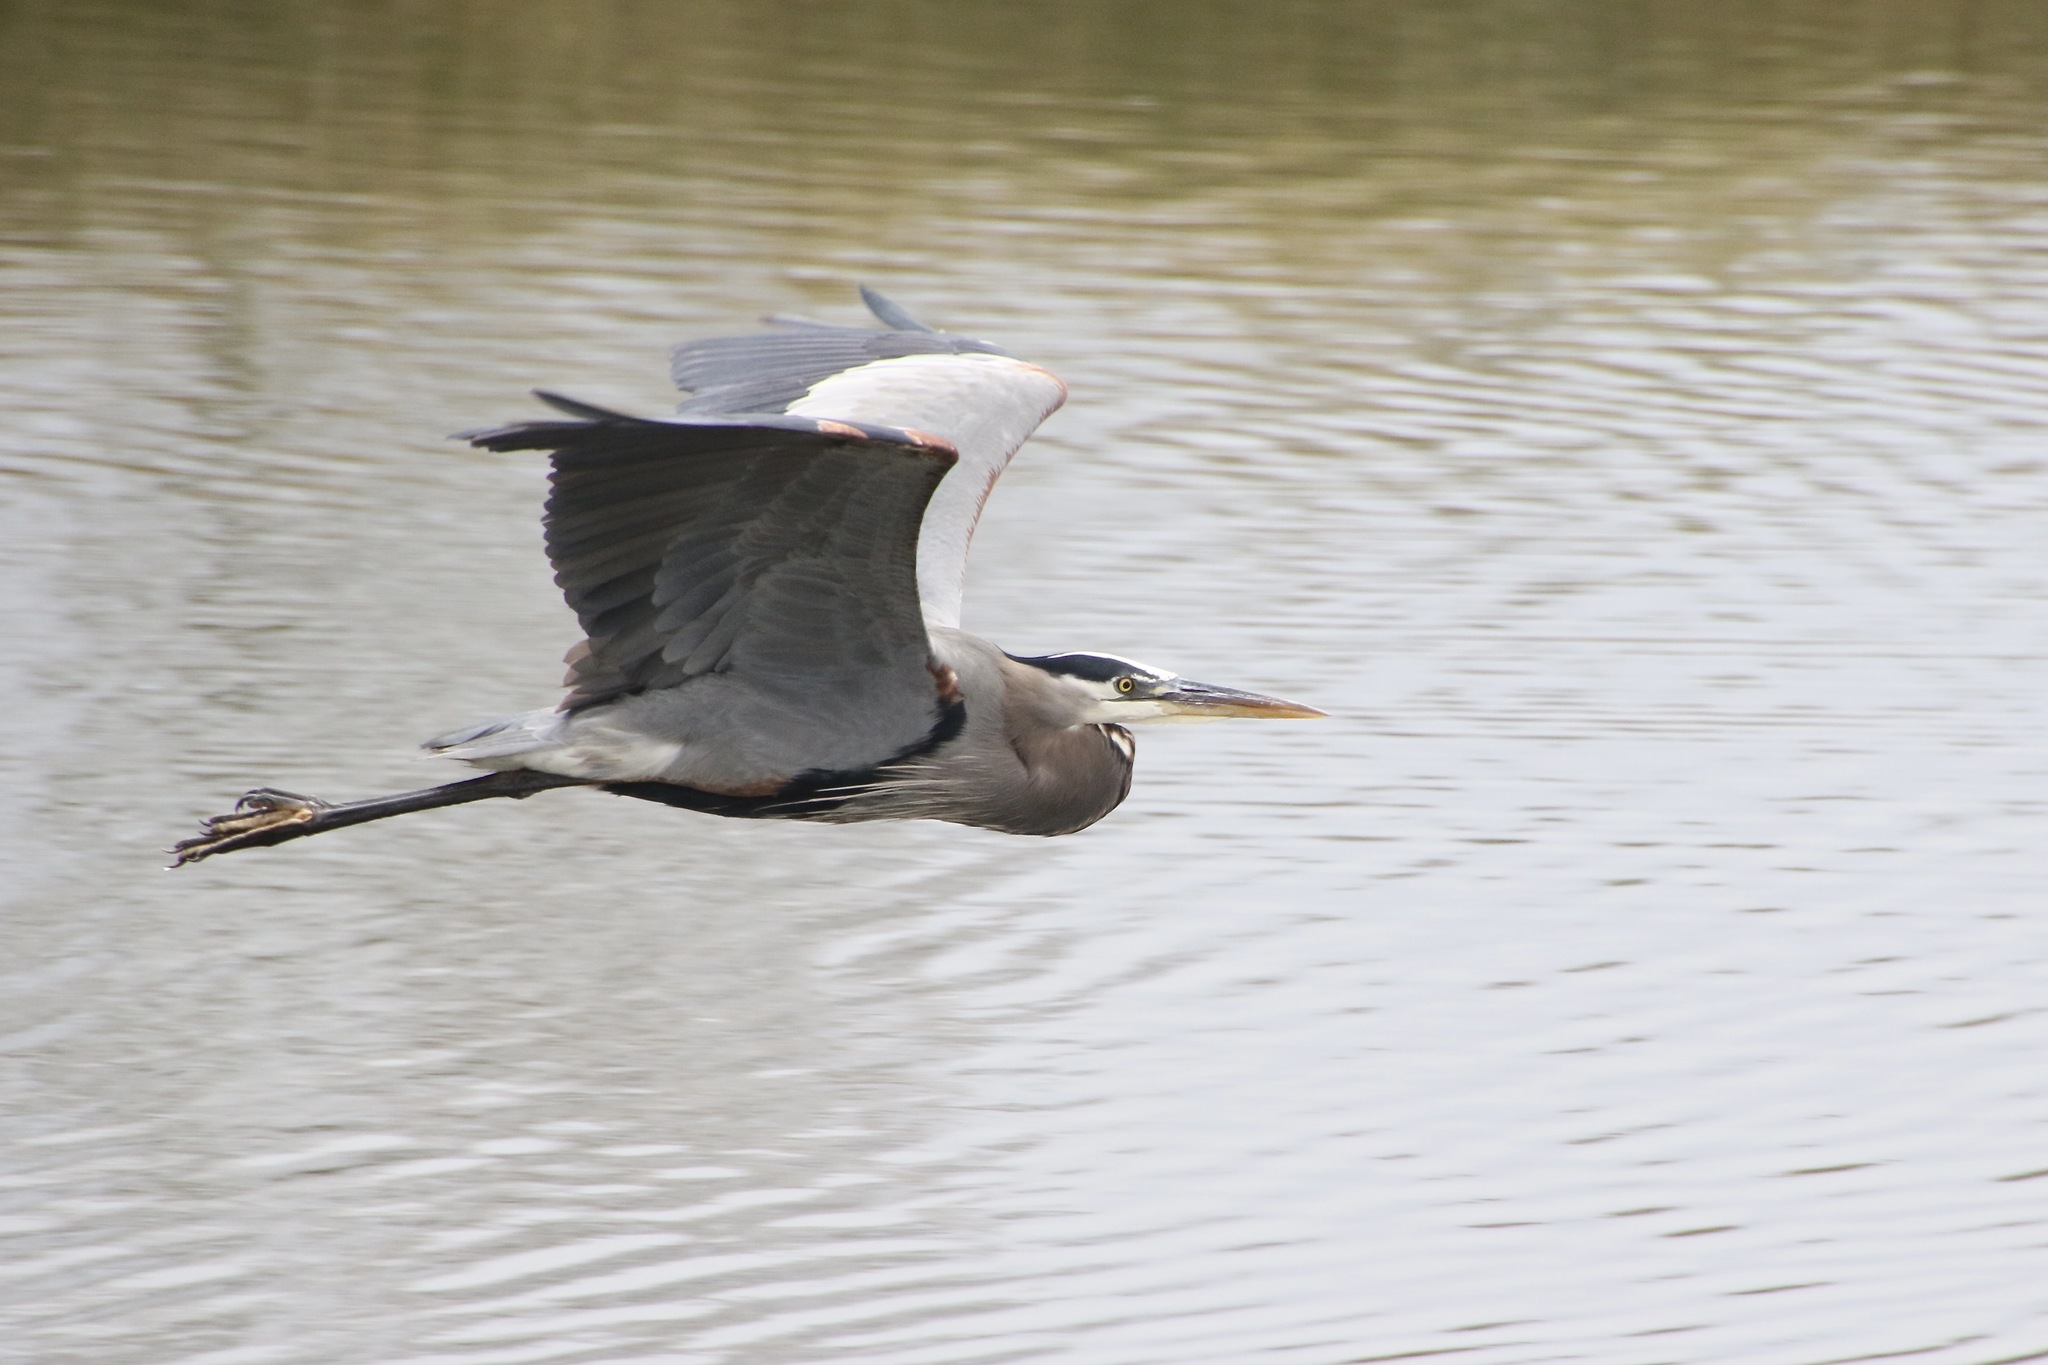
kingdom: Animalia
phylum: Chordata
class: Aves
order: Pelecaniformes
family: Ardeidae
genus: Ardea
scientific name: Ardea herodias
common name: Great blue heron
